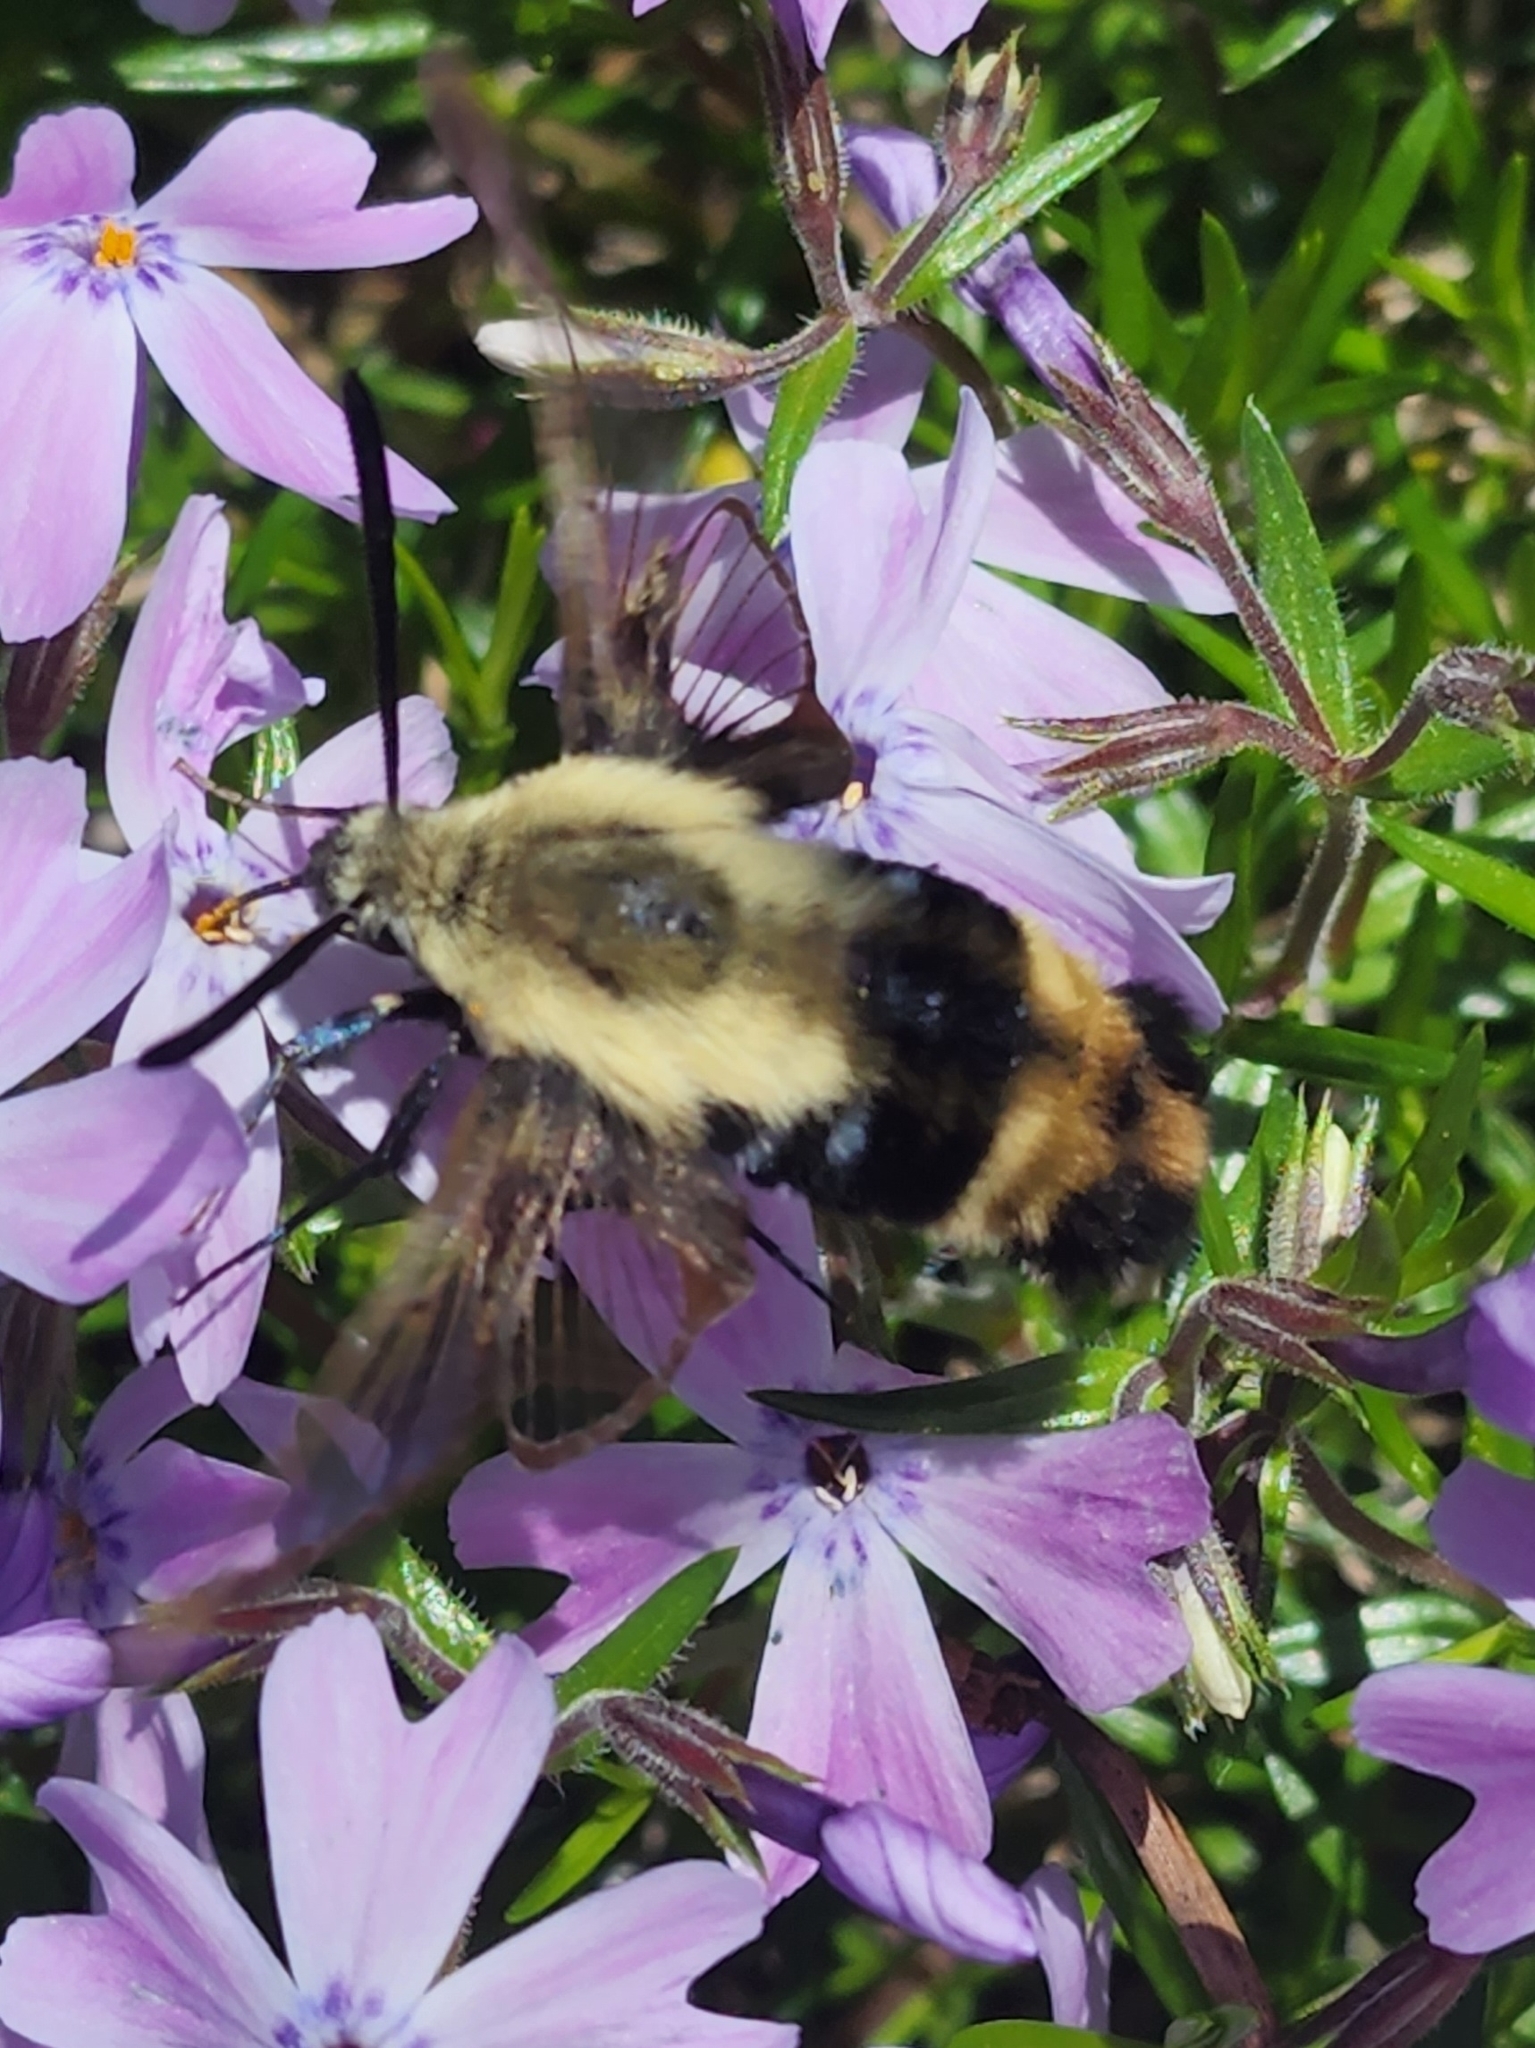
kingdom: Animalia
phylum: Arthropoda
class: Insecta
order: Lepidoptera
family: Sphingidae
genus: Hemaris
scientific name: Hemaris diffinis
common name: Bumblebee moth
